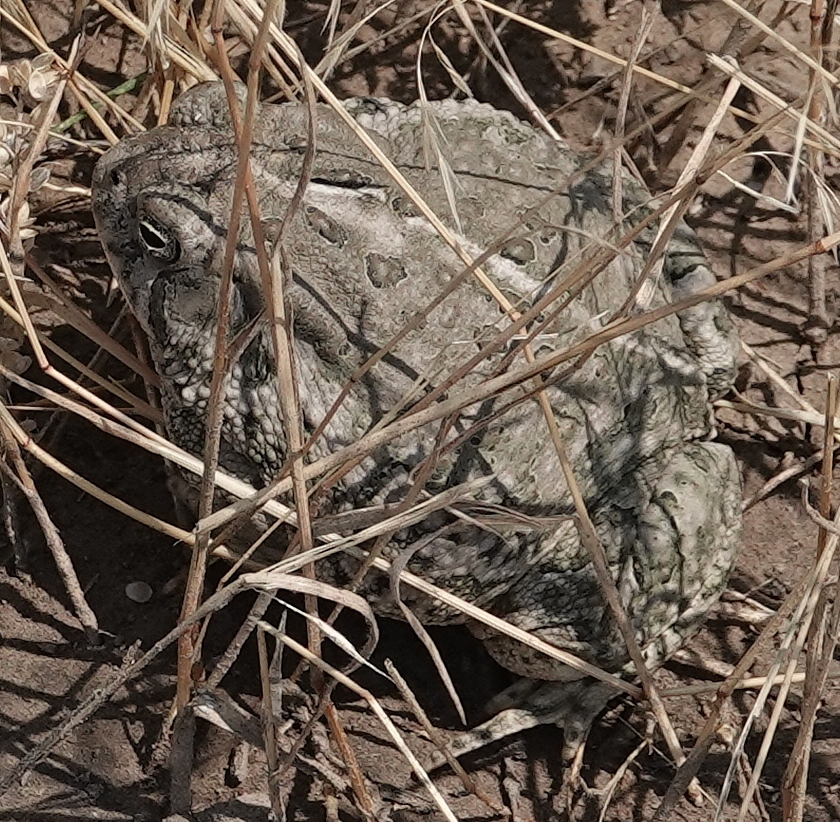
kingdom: Animalia
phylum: Chordata
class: Amphibia
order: Anura
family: Bufonidae
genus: Anaxyrus
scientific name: Anaxyrus woodhousii
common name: Woodhouse's toad
